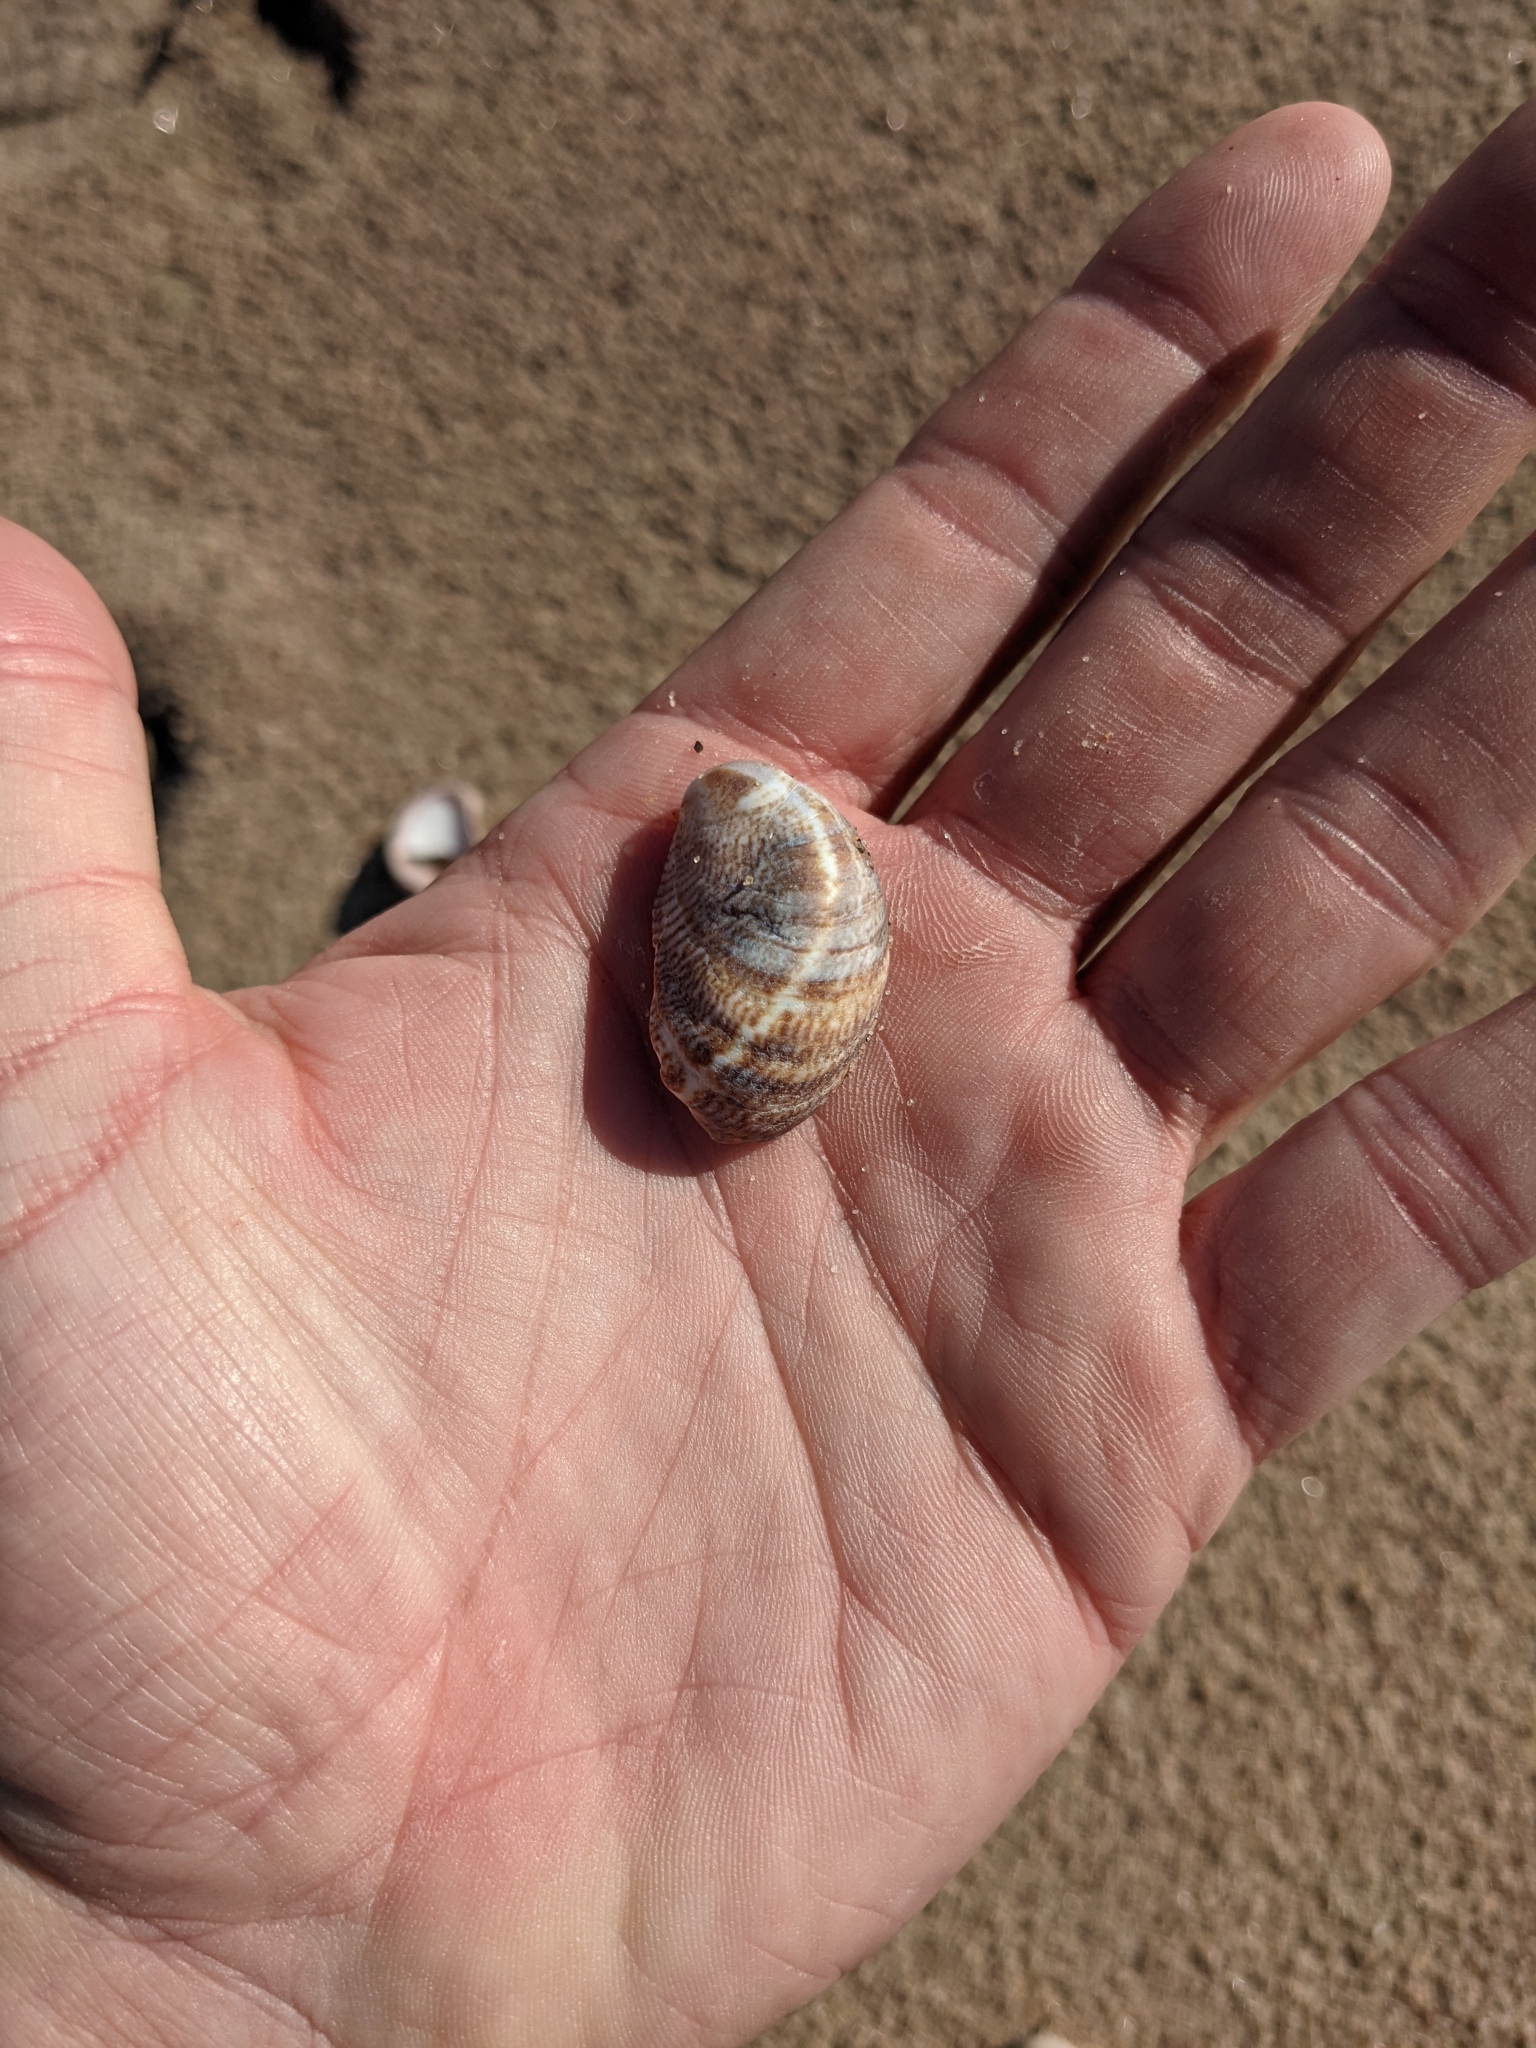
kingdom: Animalia
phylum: Mollusca
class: Gastropoda
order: Littorinimorpha
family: Calyptraeidae
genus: Crepidula
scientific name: Crepidula fornicata
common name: Slipper limpet
